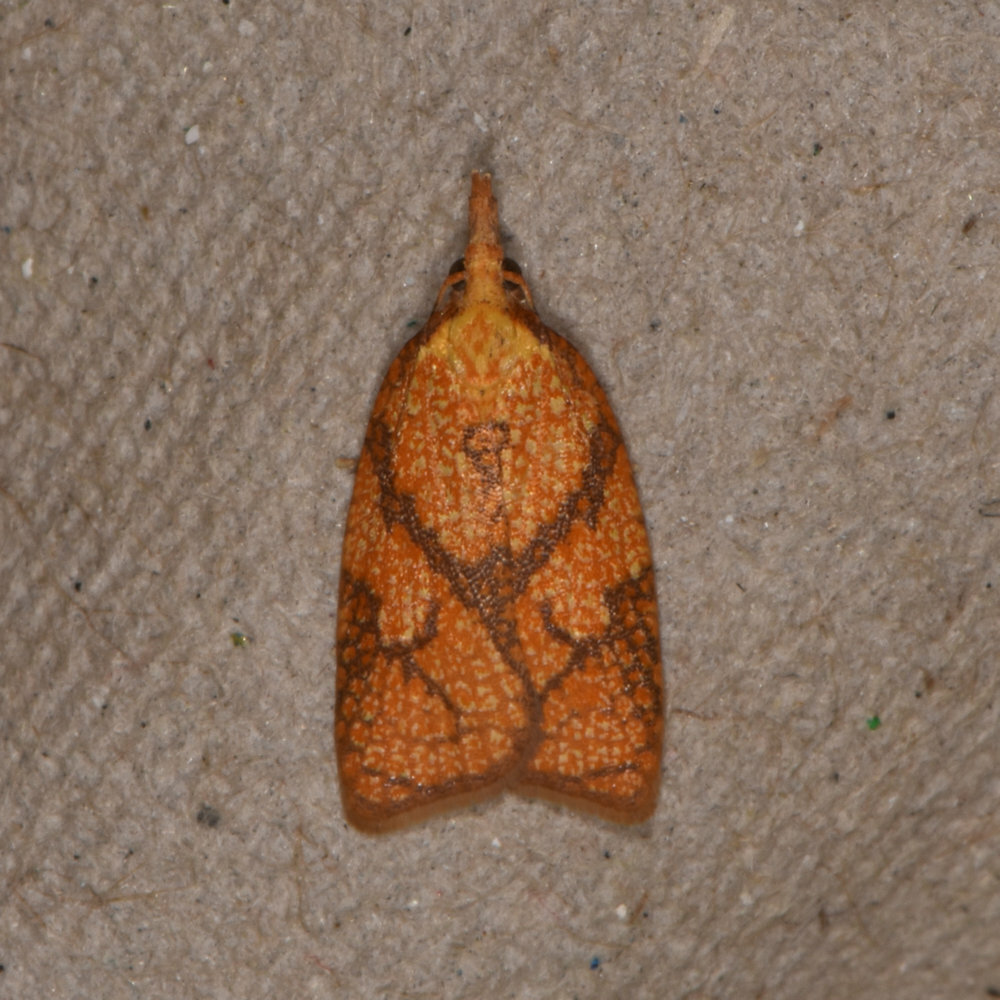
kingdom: Animalia
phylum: Arthropoda
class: Insecta
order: Lepidoptera
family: Tortricidae
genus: Cenopis
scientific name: Cenopis reticulatana
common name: Reticulated fruitworm moth
